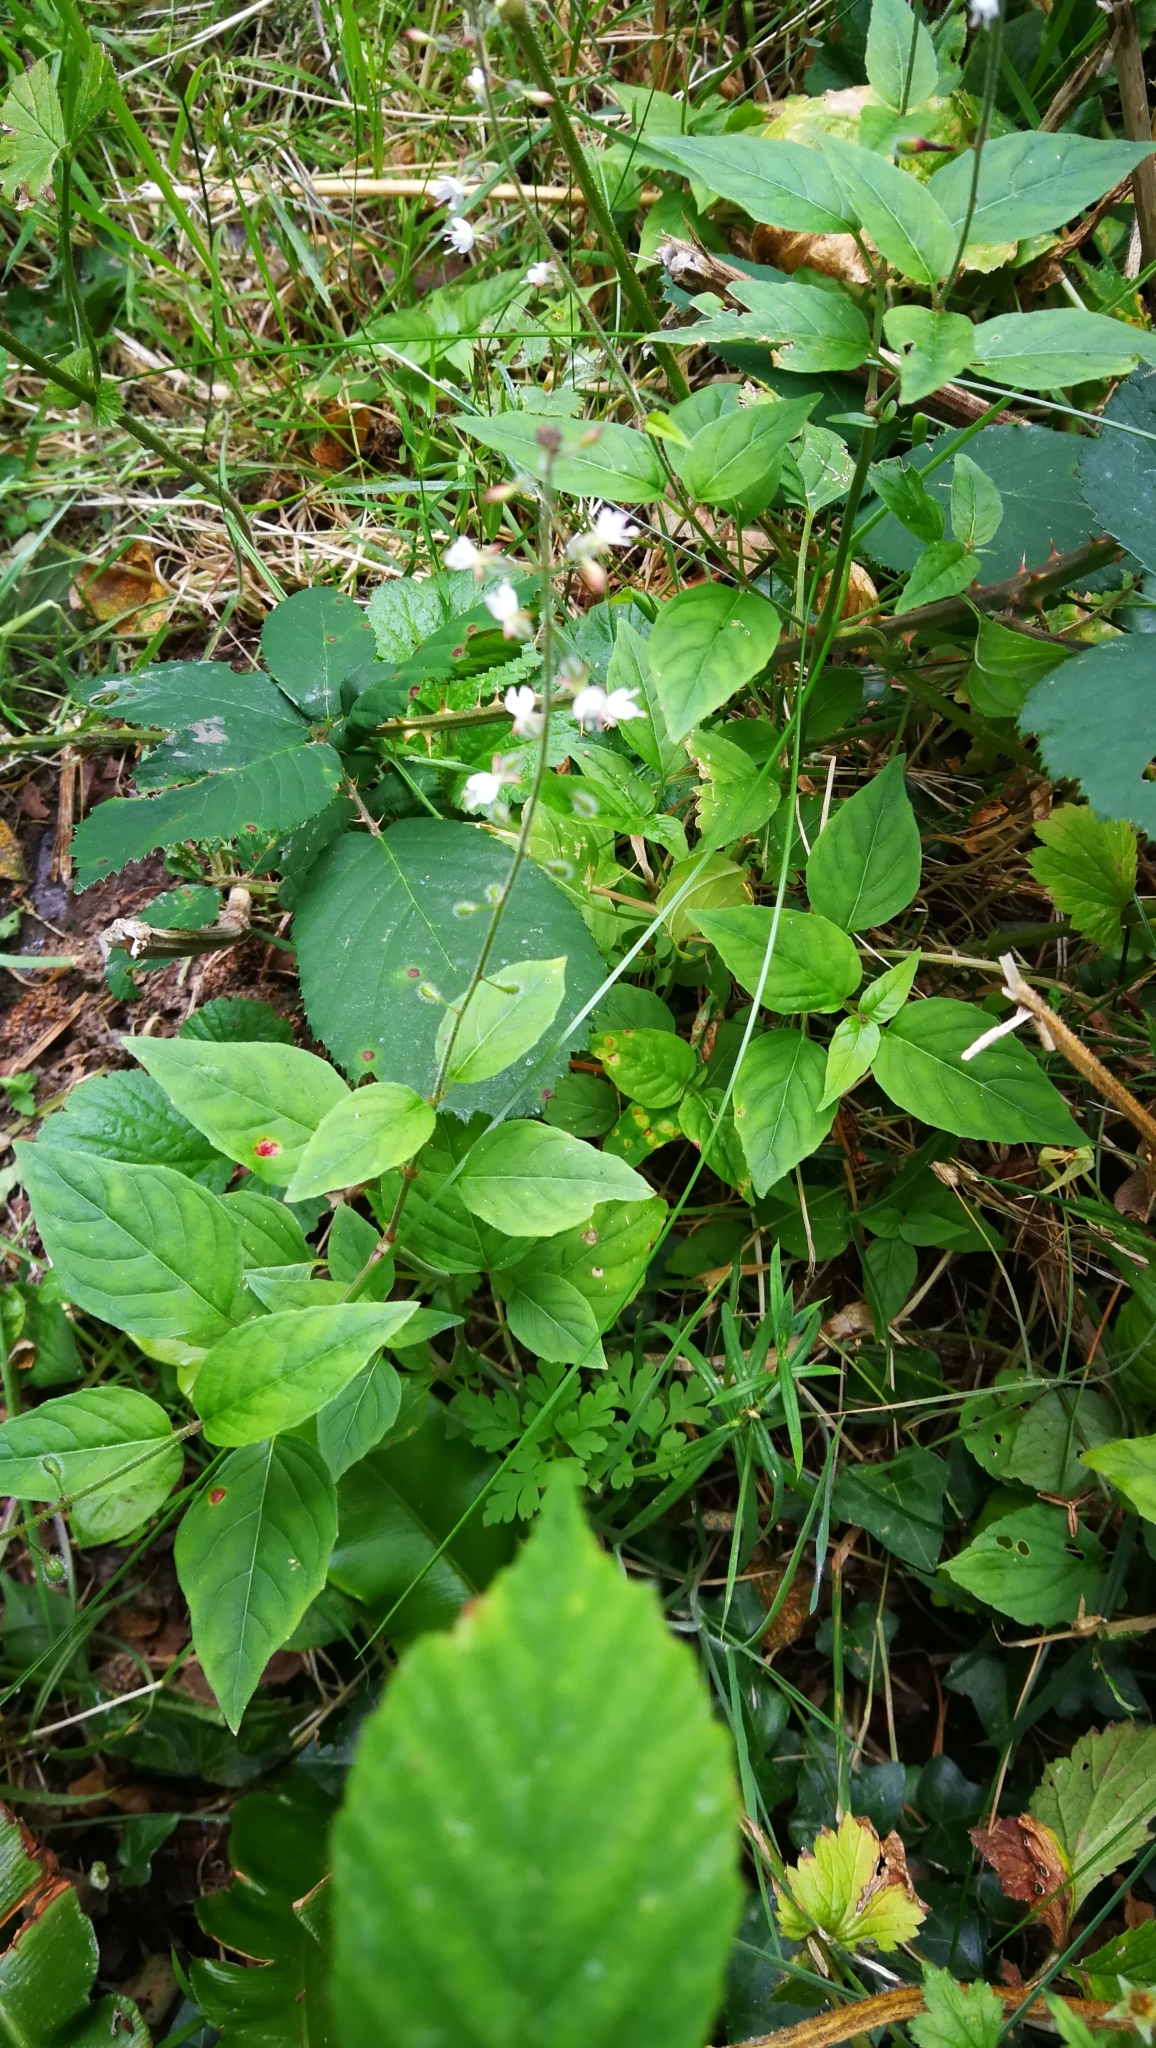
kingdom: Plantae
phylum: Tracheophyta
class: Magnoliopsida
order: Myrtales
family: Onagraceae
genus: Circaea
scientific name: Circaea lutetiana
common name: Enchanter's-nightshade
